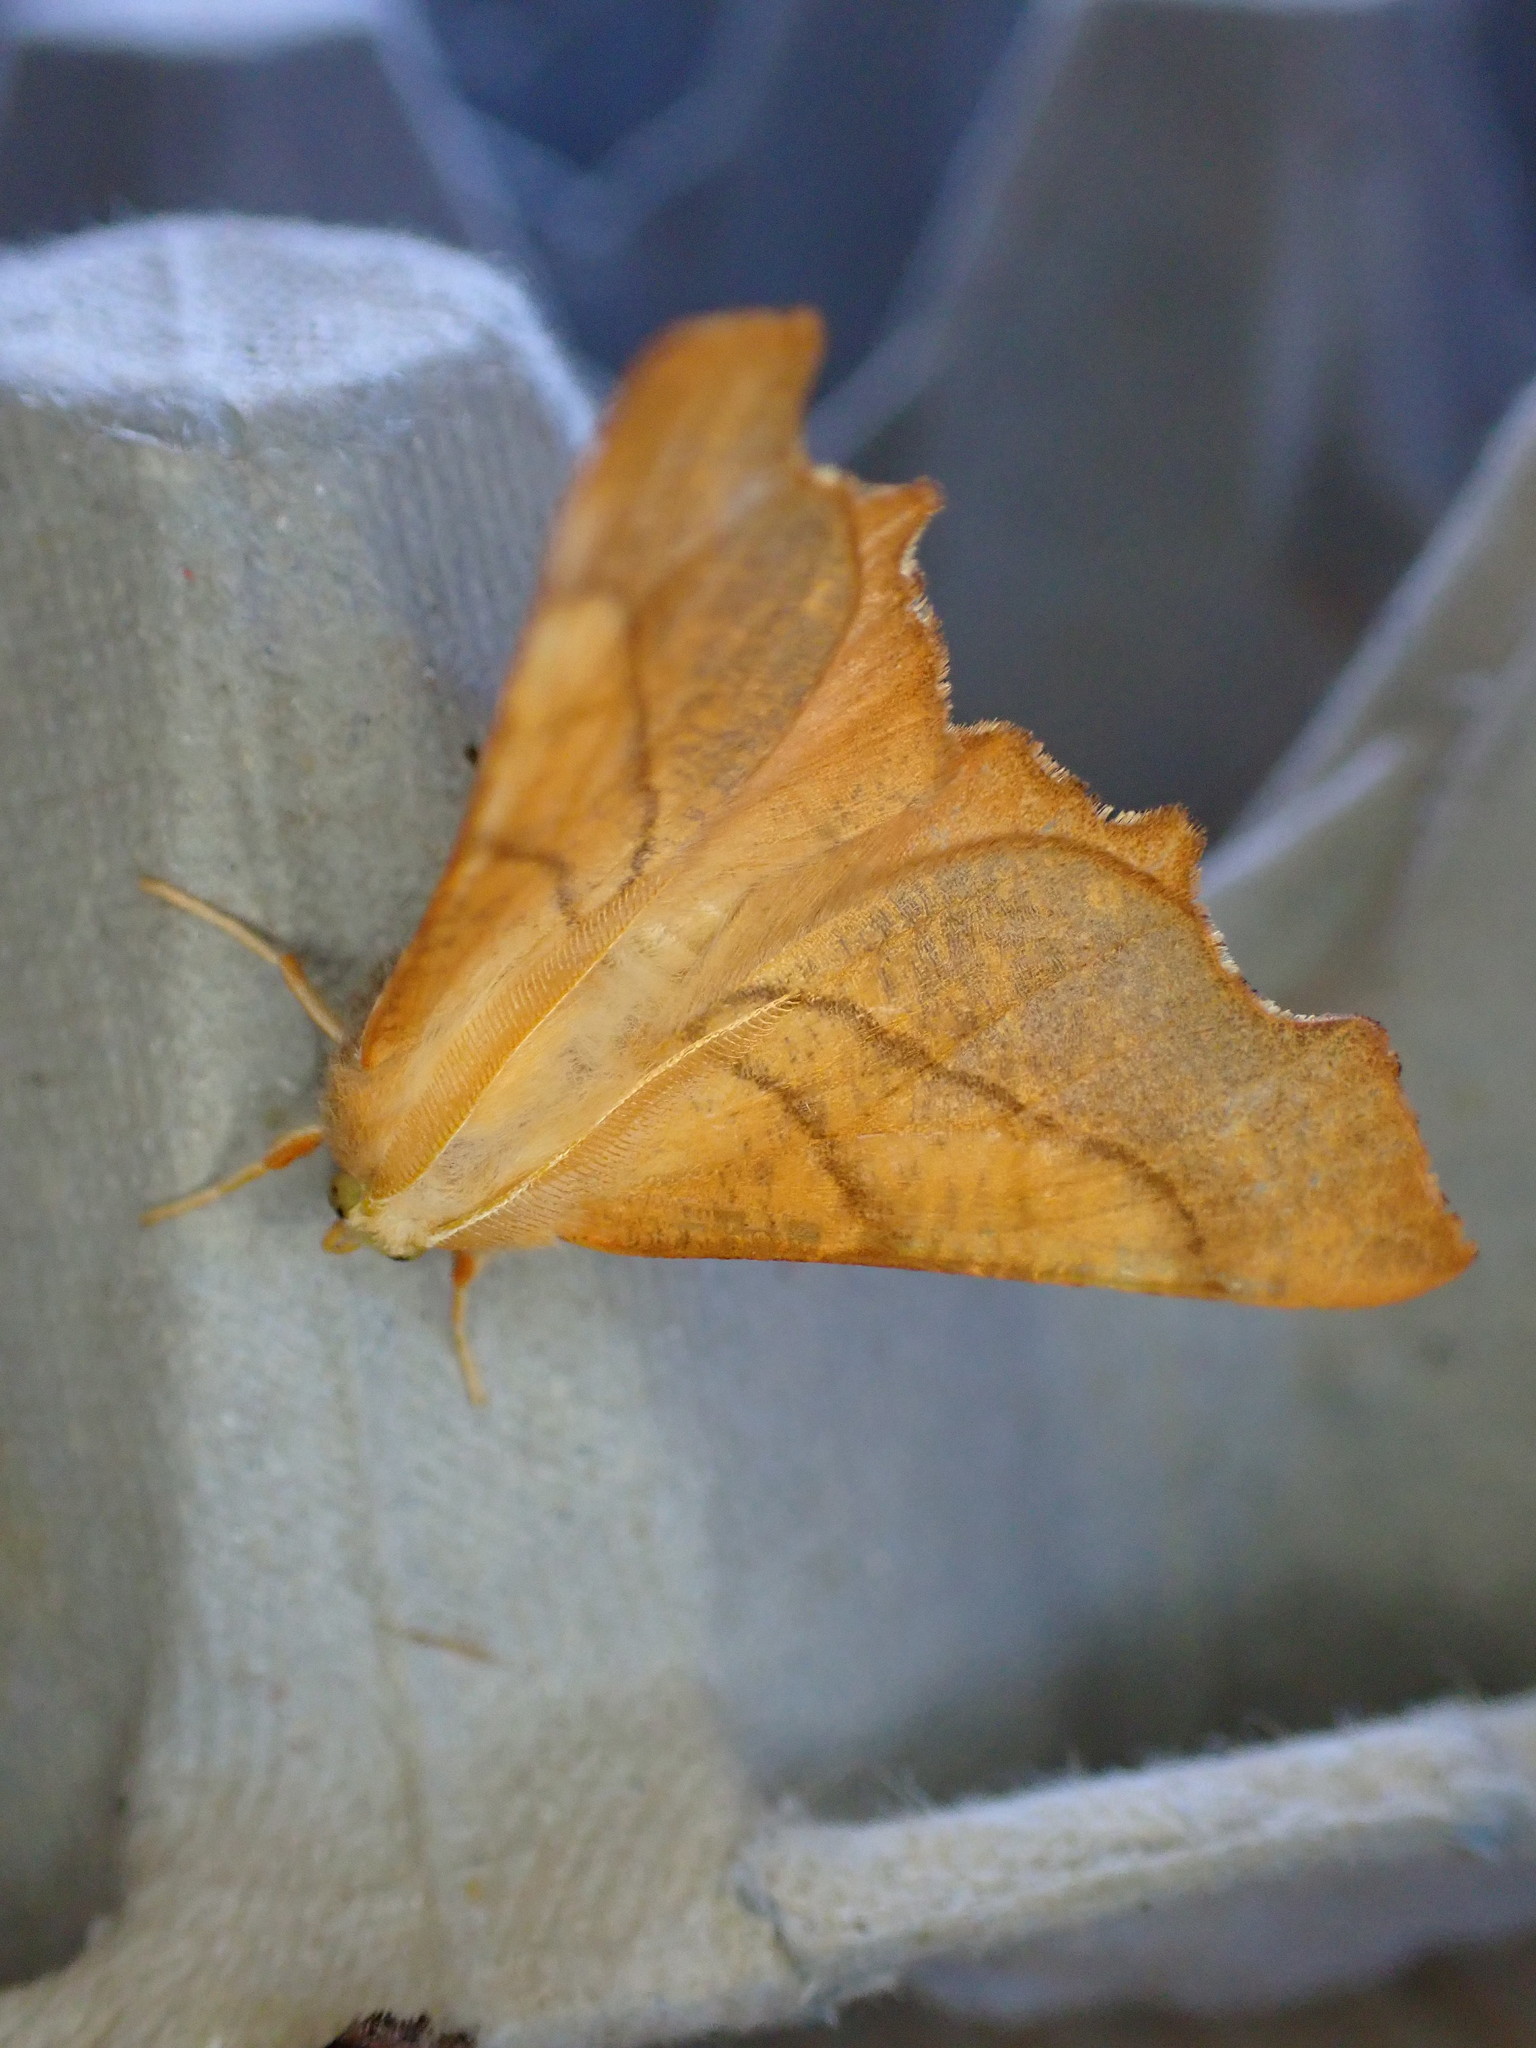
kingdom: Animalia
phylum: Arthropoda
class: Insecta
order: Lepidoptera
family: Geometridae
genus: Ennomos
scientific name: Ennomos fuscantaria
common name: Dusky thorn
